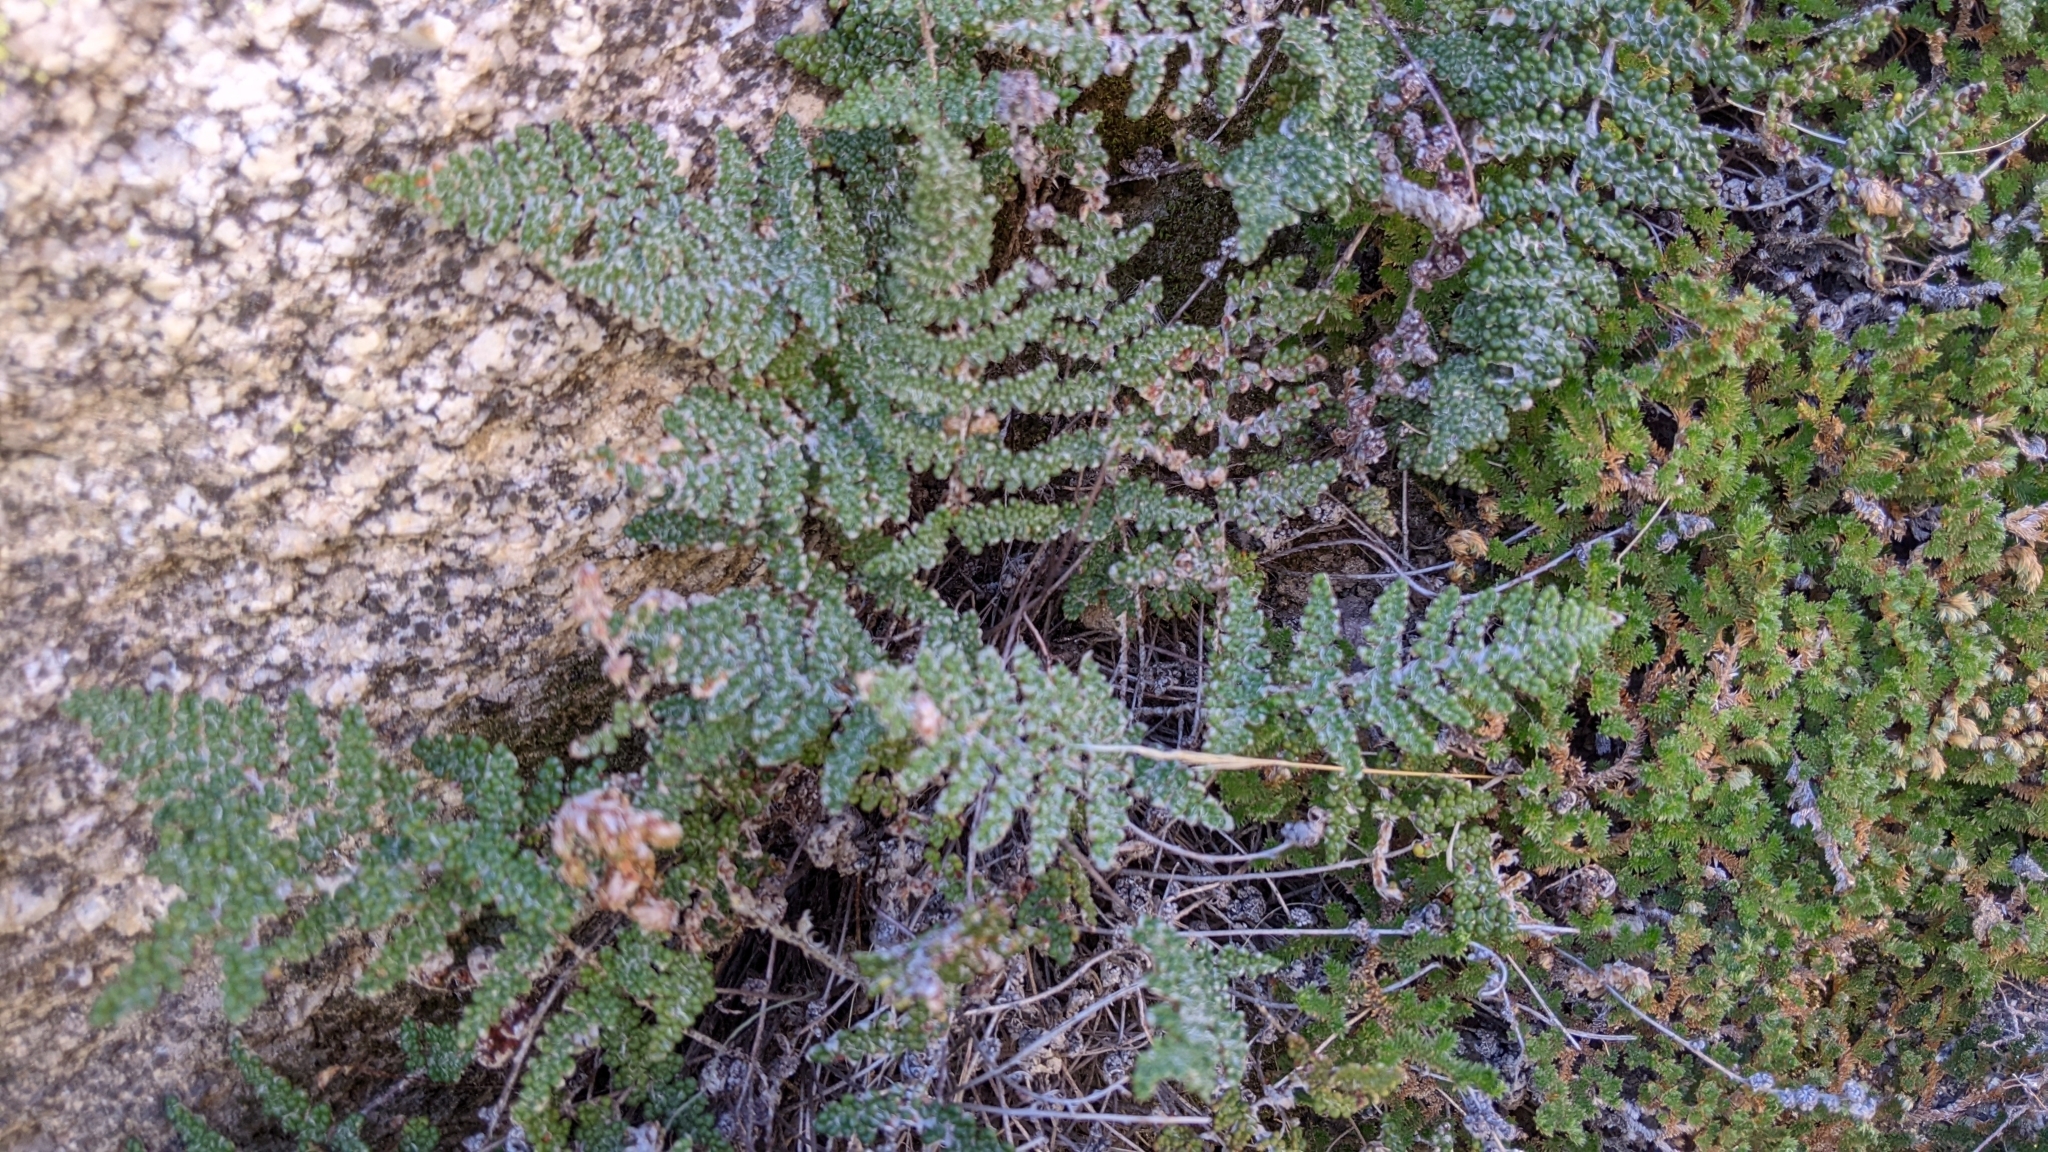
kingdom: Plantae
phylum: Tracheophyta
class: Polypodiopsida
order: Polypodiales
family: Pteridaceae
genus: Myriopteris
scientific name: Myriopteris covillei
